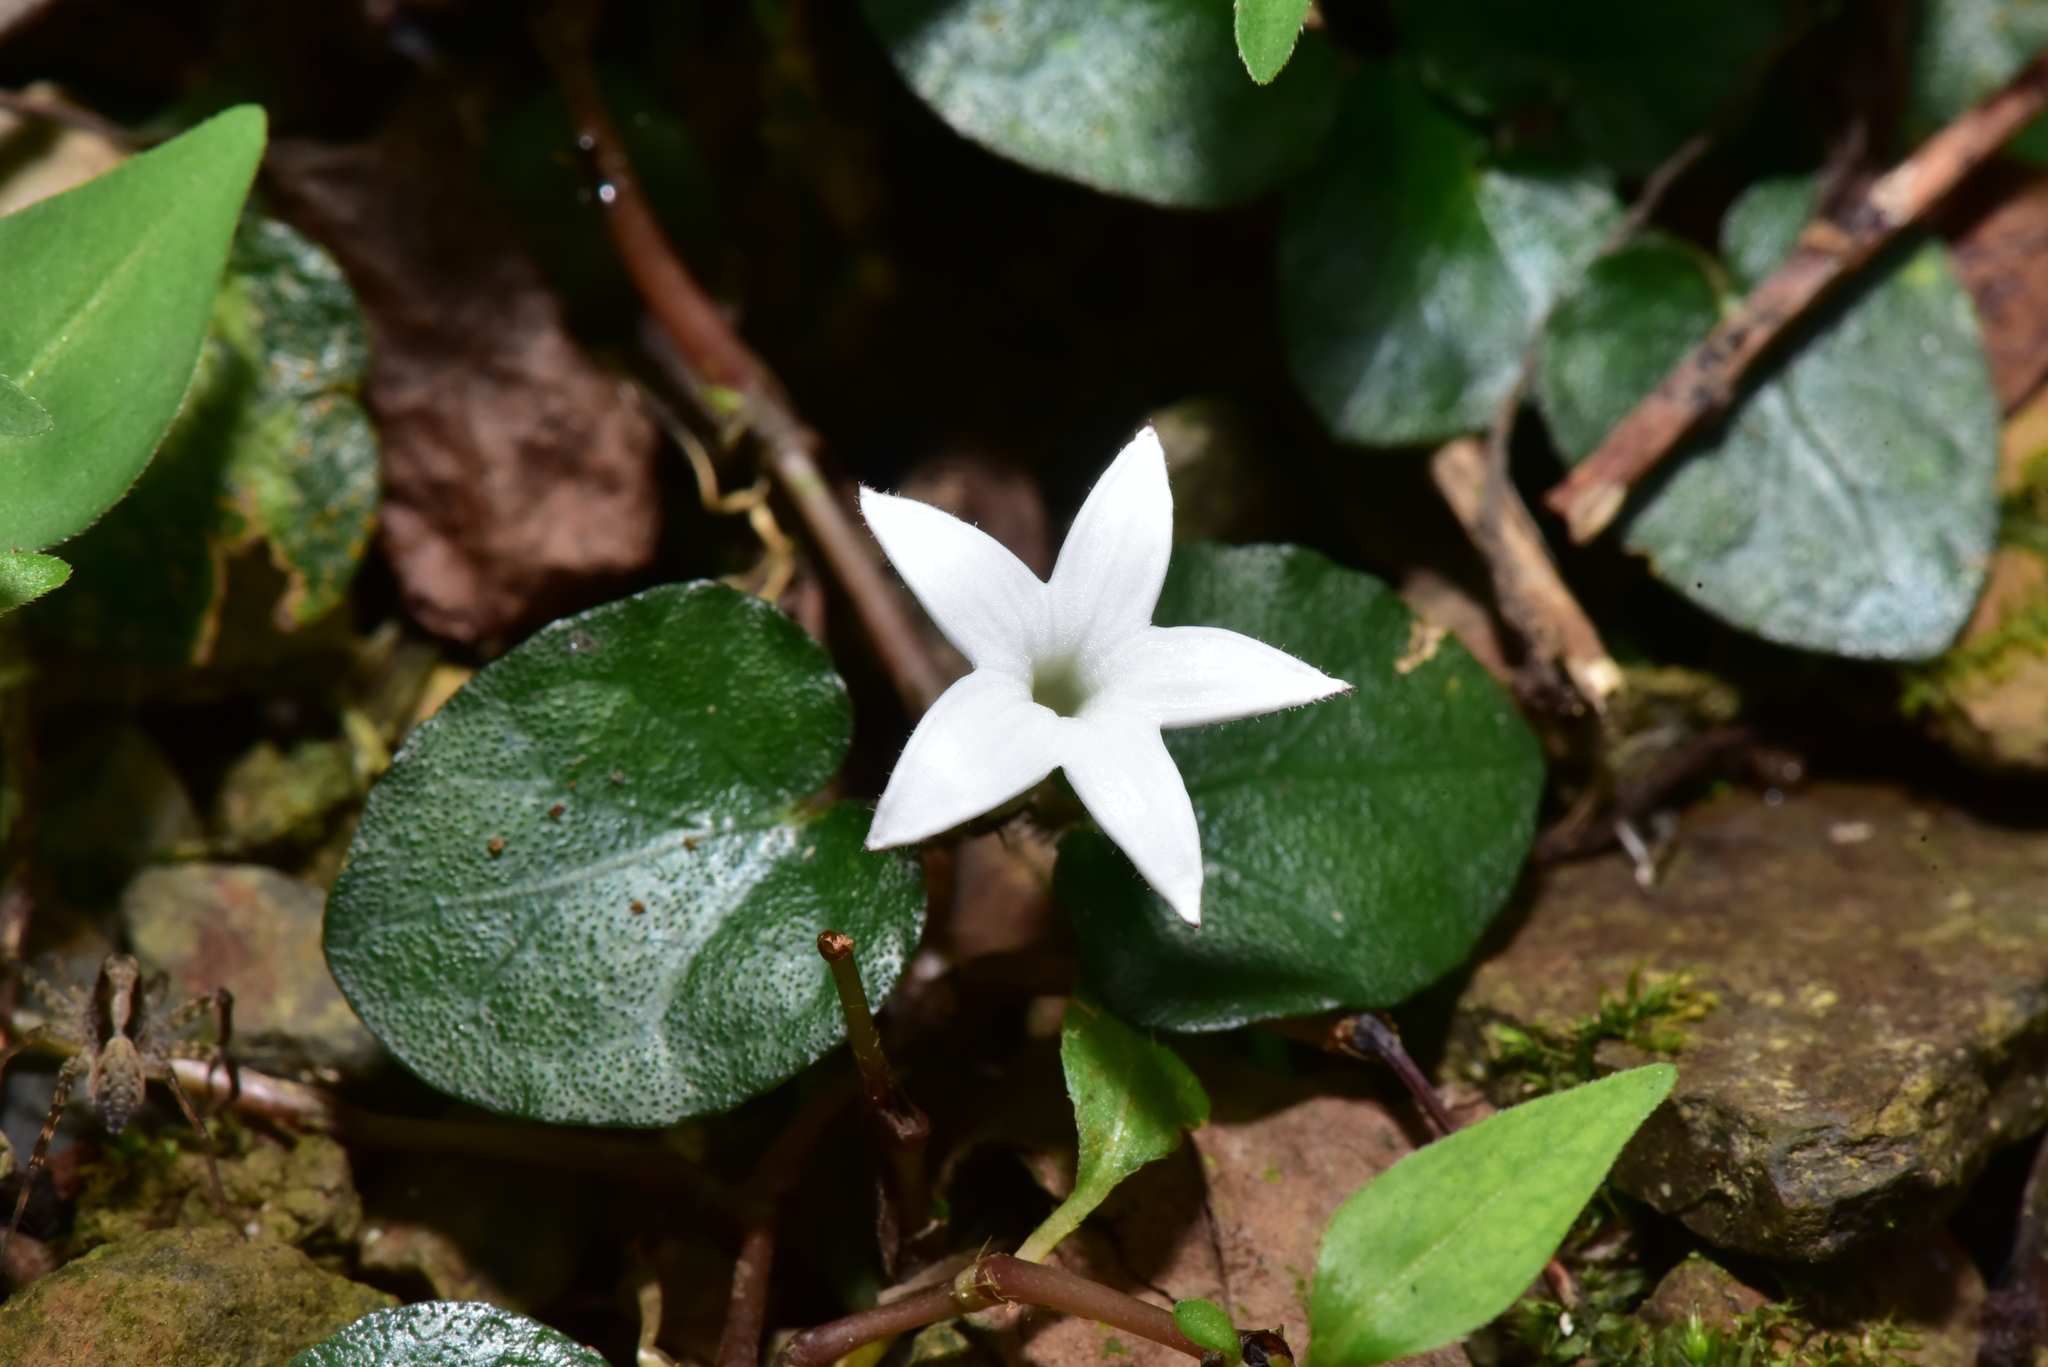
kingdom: Plantae
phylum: Tracheophyta
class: Magnoliopsida
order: Gentianales
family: Rubiaceae
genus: Geophila
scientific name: Geophila herbacea
